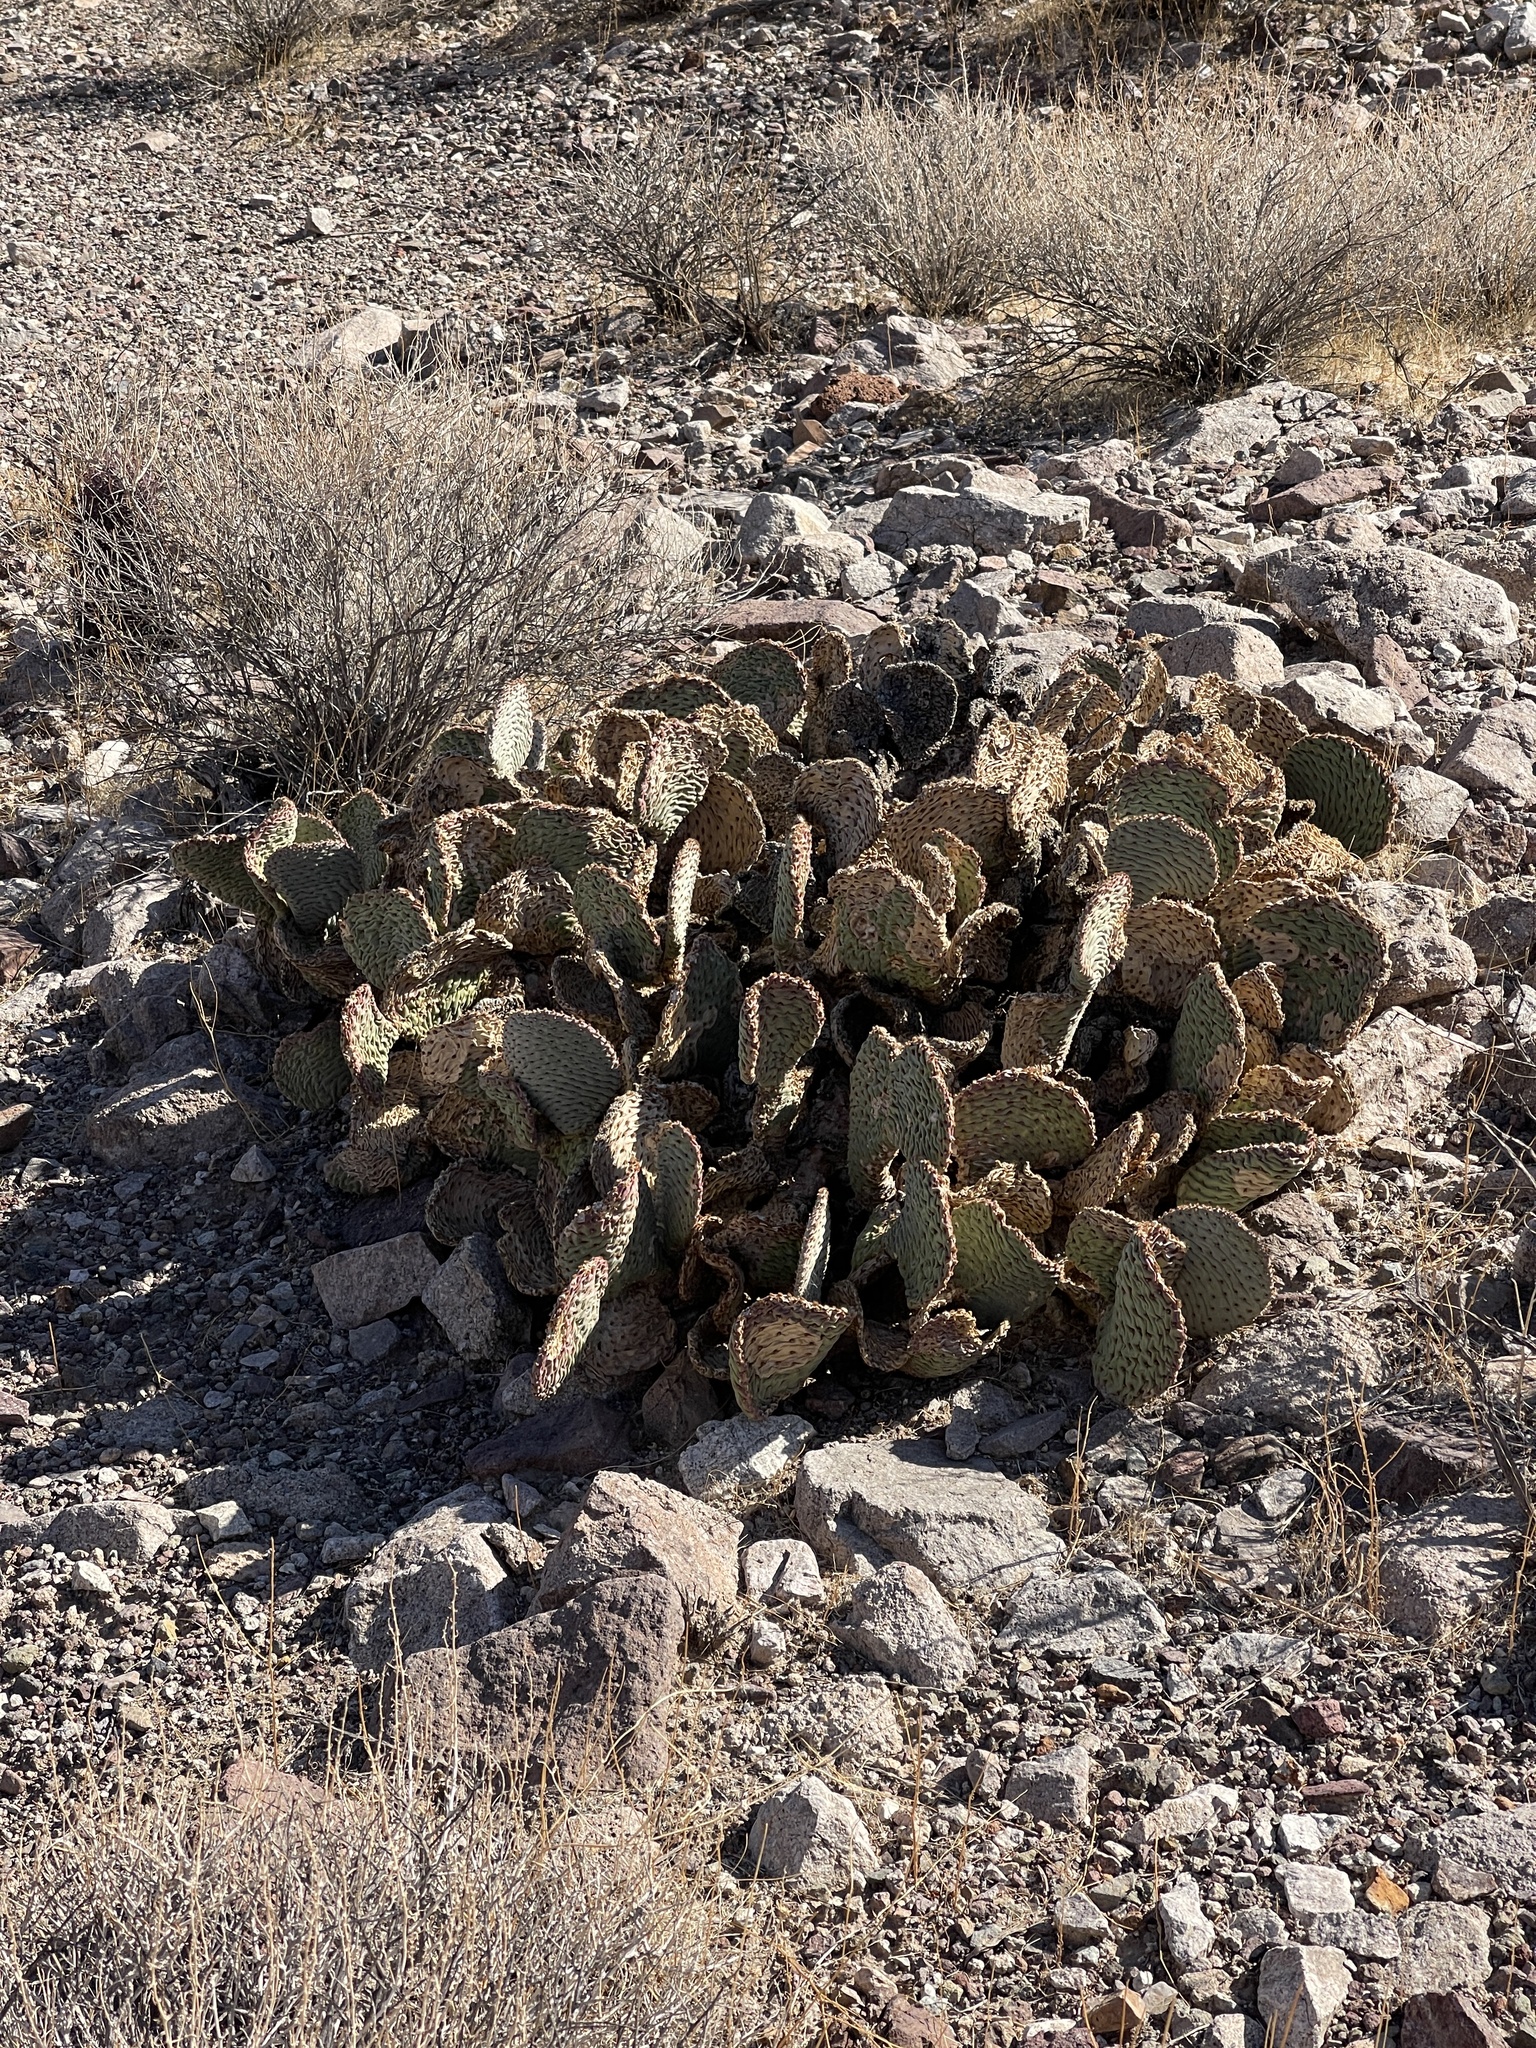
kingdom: Plantae
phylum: Tracheophyta
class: Magnoliopsida
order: Caryophyllales
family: Cactaceae
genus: Opuntia
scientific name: Opuntia basilaris
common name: Beavertail prickly-pear
